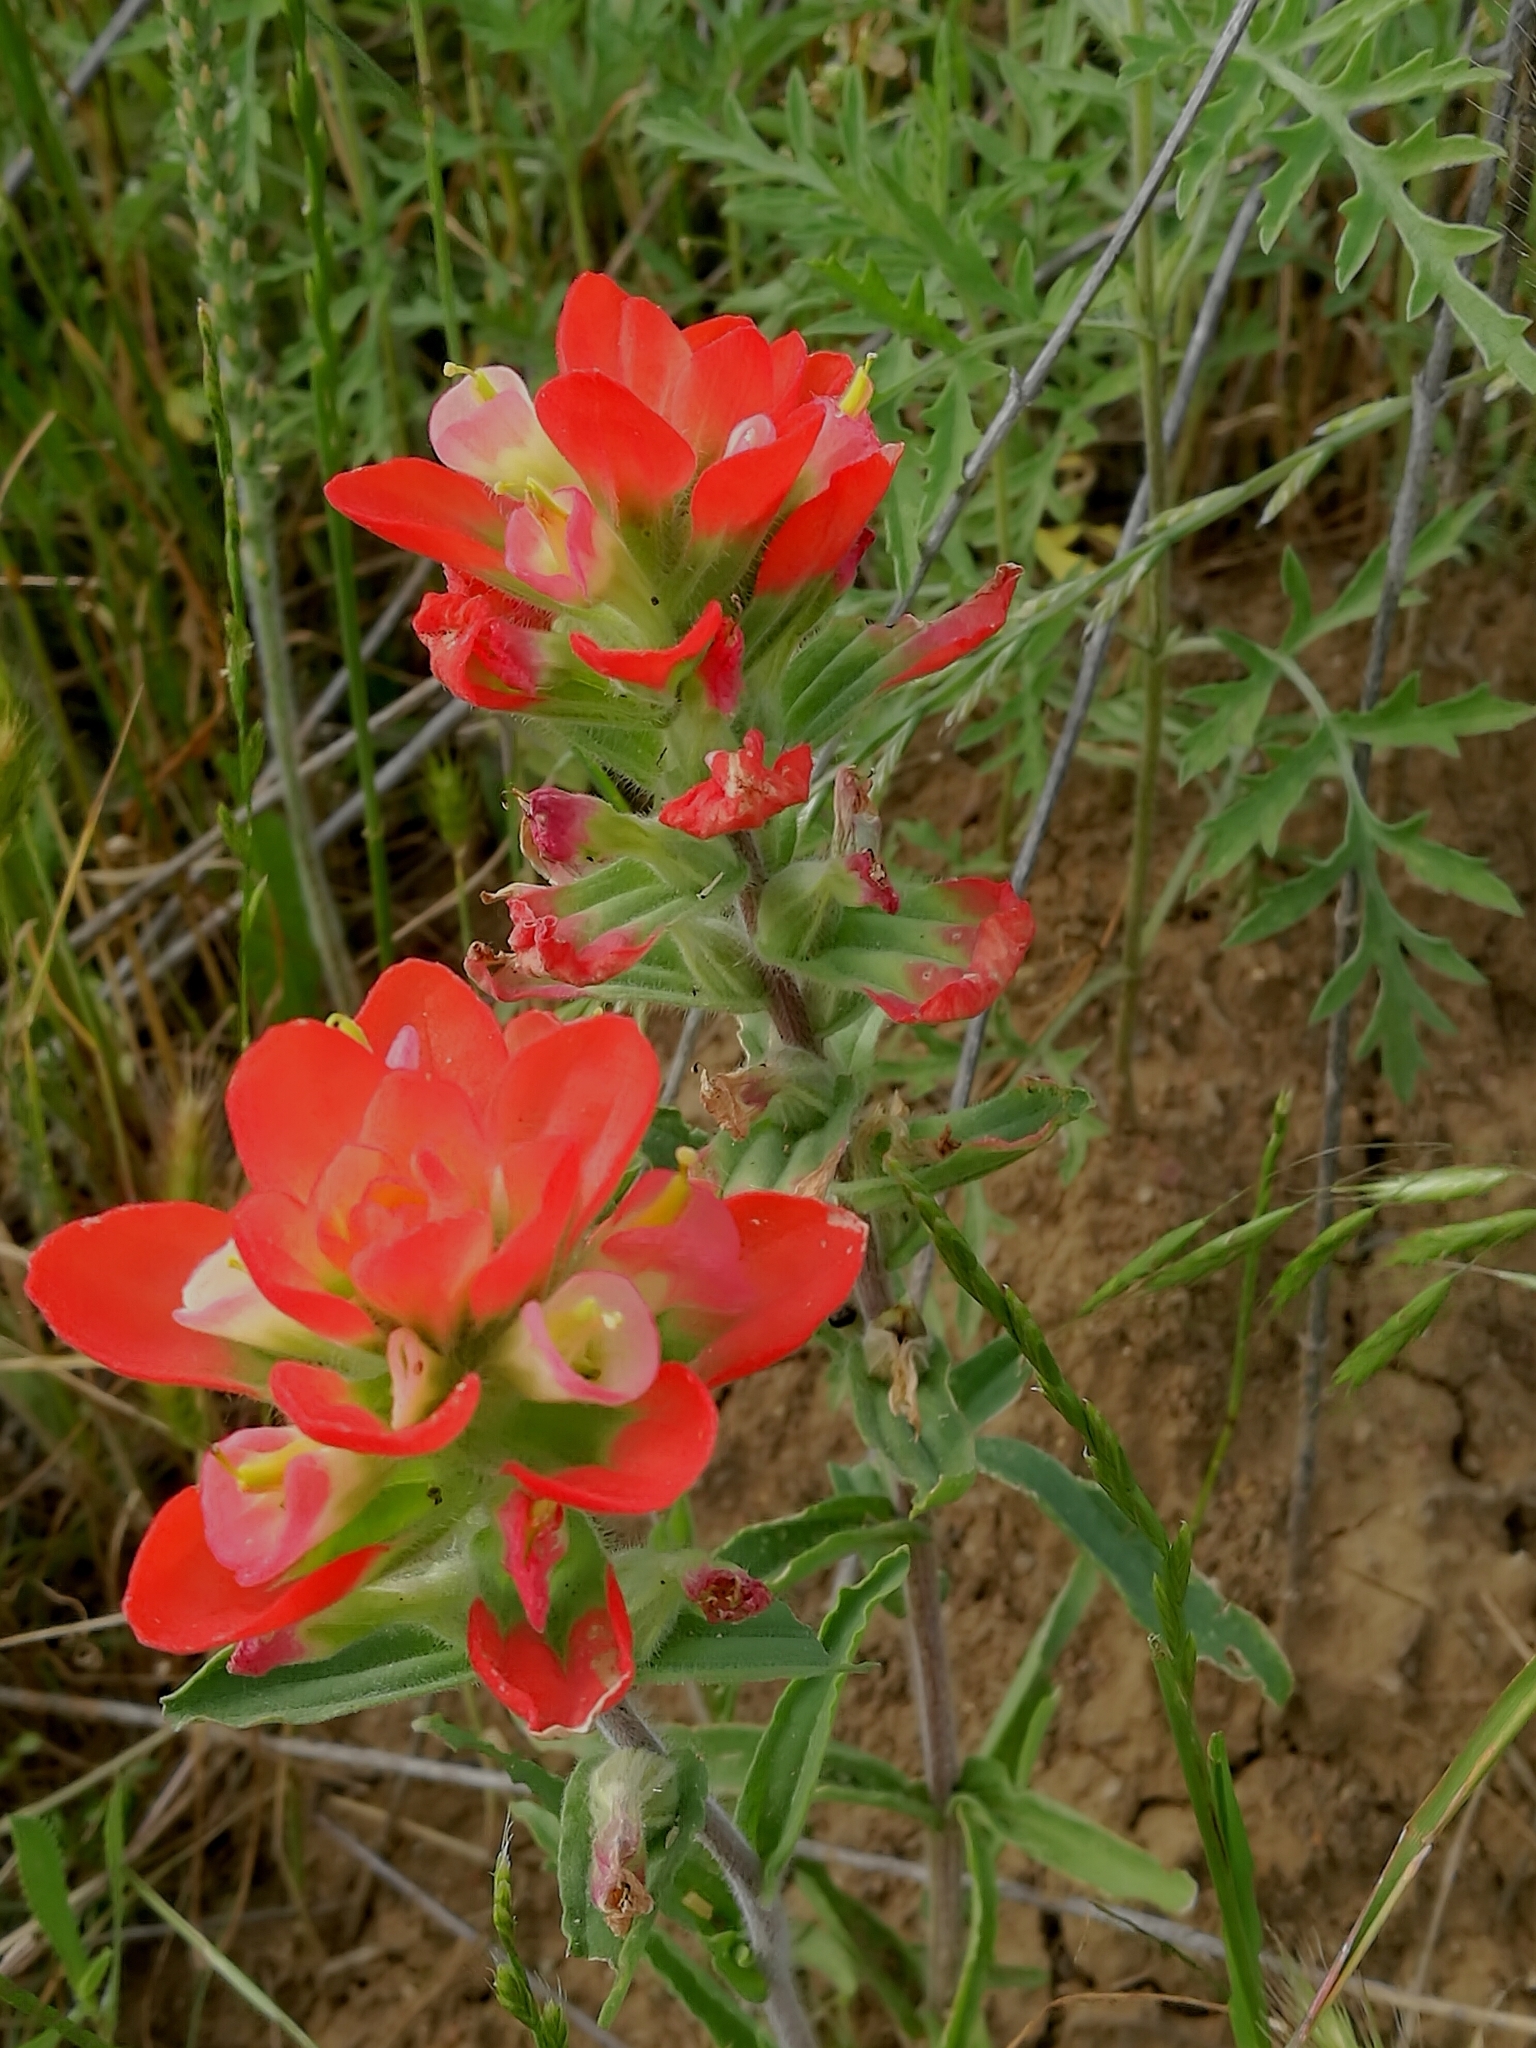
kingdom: Plantae
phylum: Tracheophyta
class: Magnoliopsida
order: Lamiales
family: Orobanchaceae
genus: Castilleja
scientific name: Castilleja indivisa
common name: Texas paintbrush
